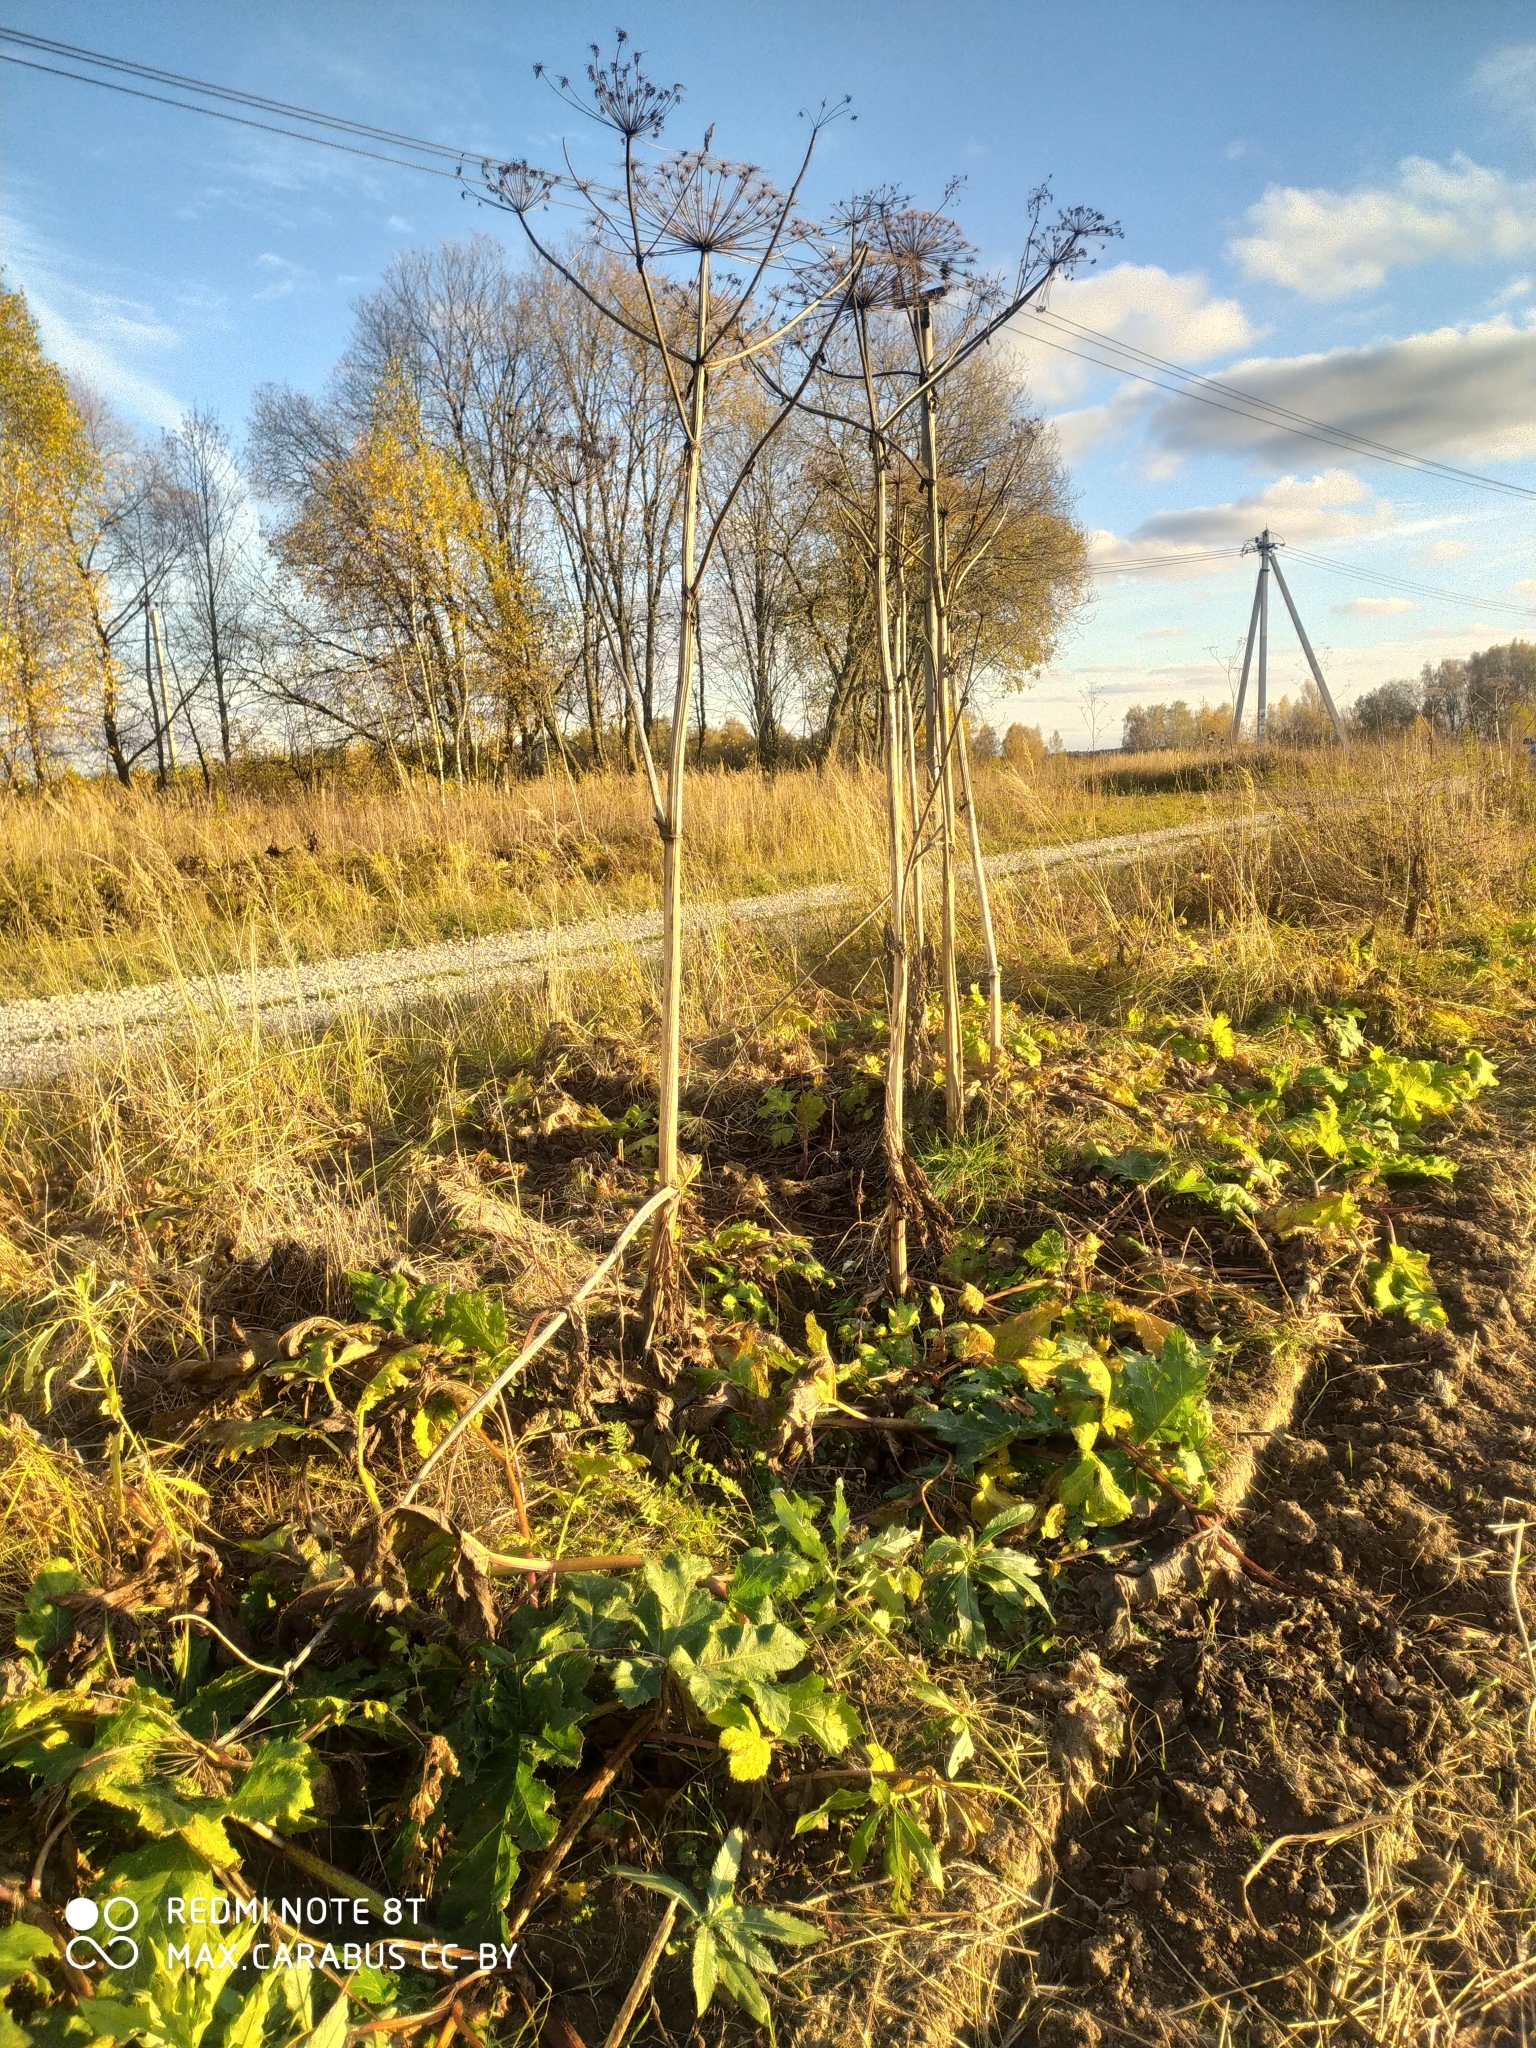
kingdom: Plantae
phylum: Tracheophyta
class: Magnoliopsida
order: Apiales
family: Apiaceae
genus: Heracleum
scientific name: Heracleum sosnowskyi
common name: Sosnowsky's hogweed
